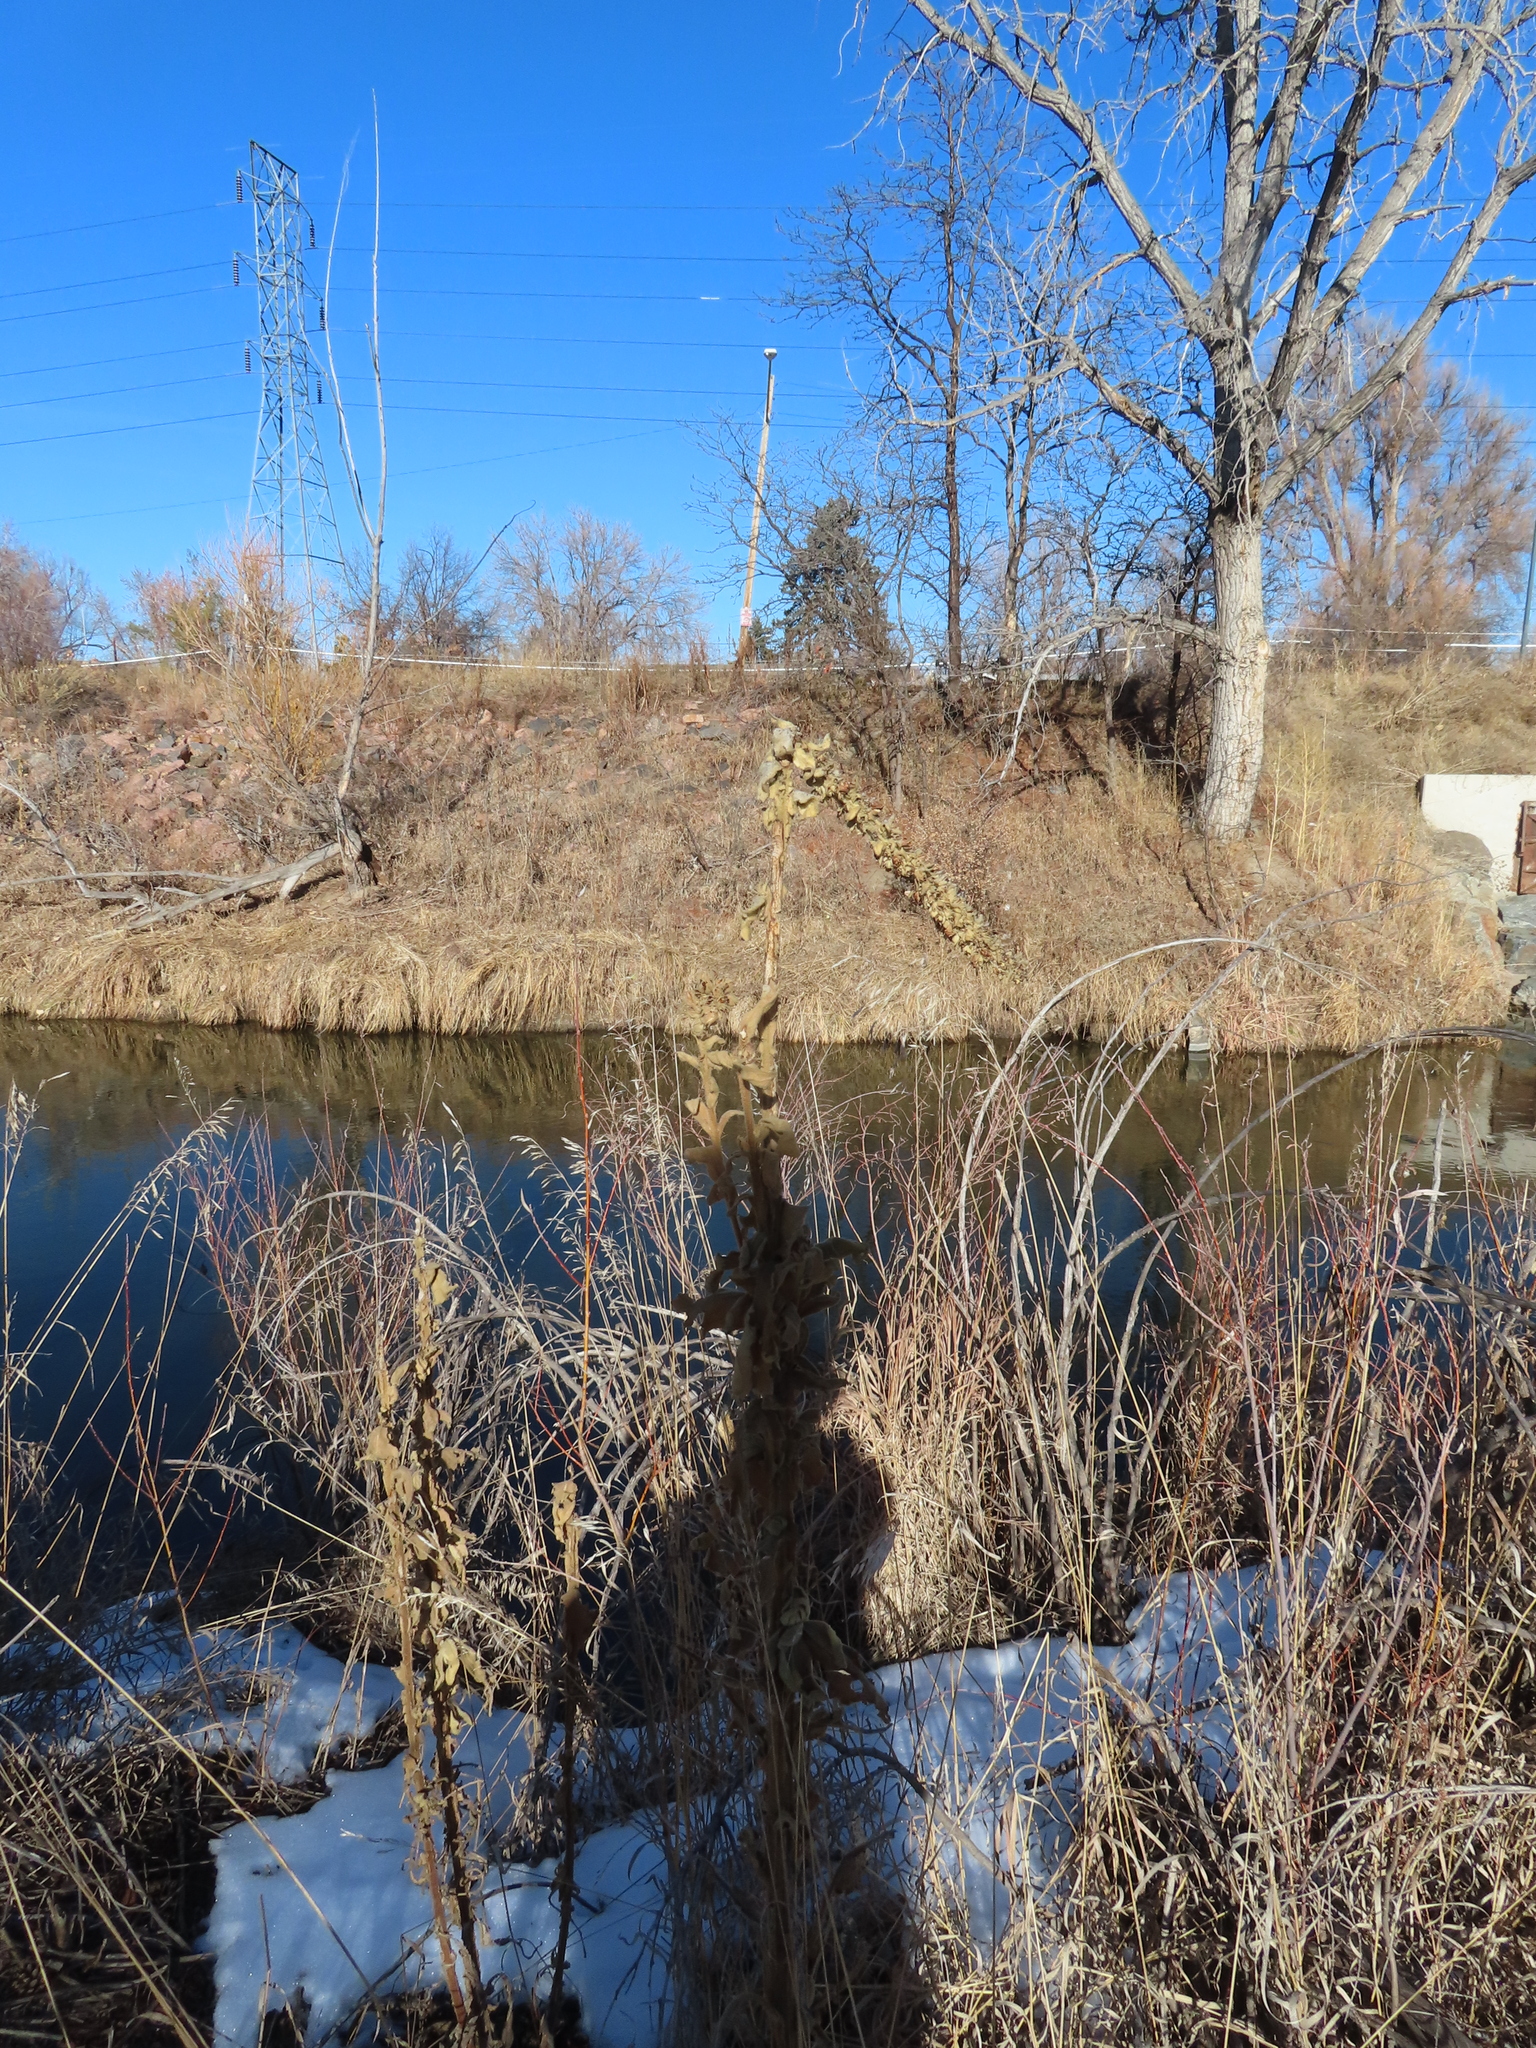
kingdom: Plantae
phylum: Tracheophyta
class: Magnoliopsida
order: Lamiales
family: Scrophulariaceae
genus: Verbascum
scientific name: Verbascum thapsus
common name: Common mullein
